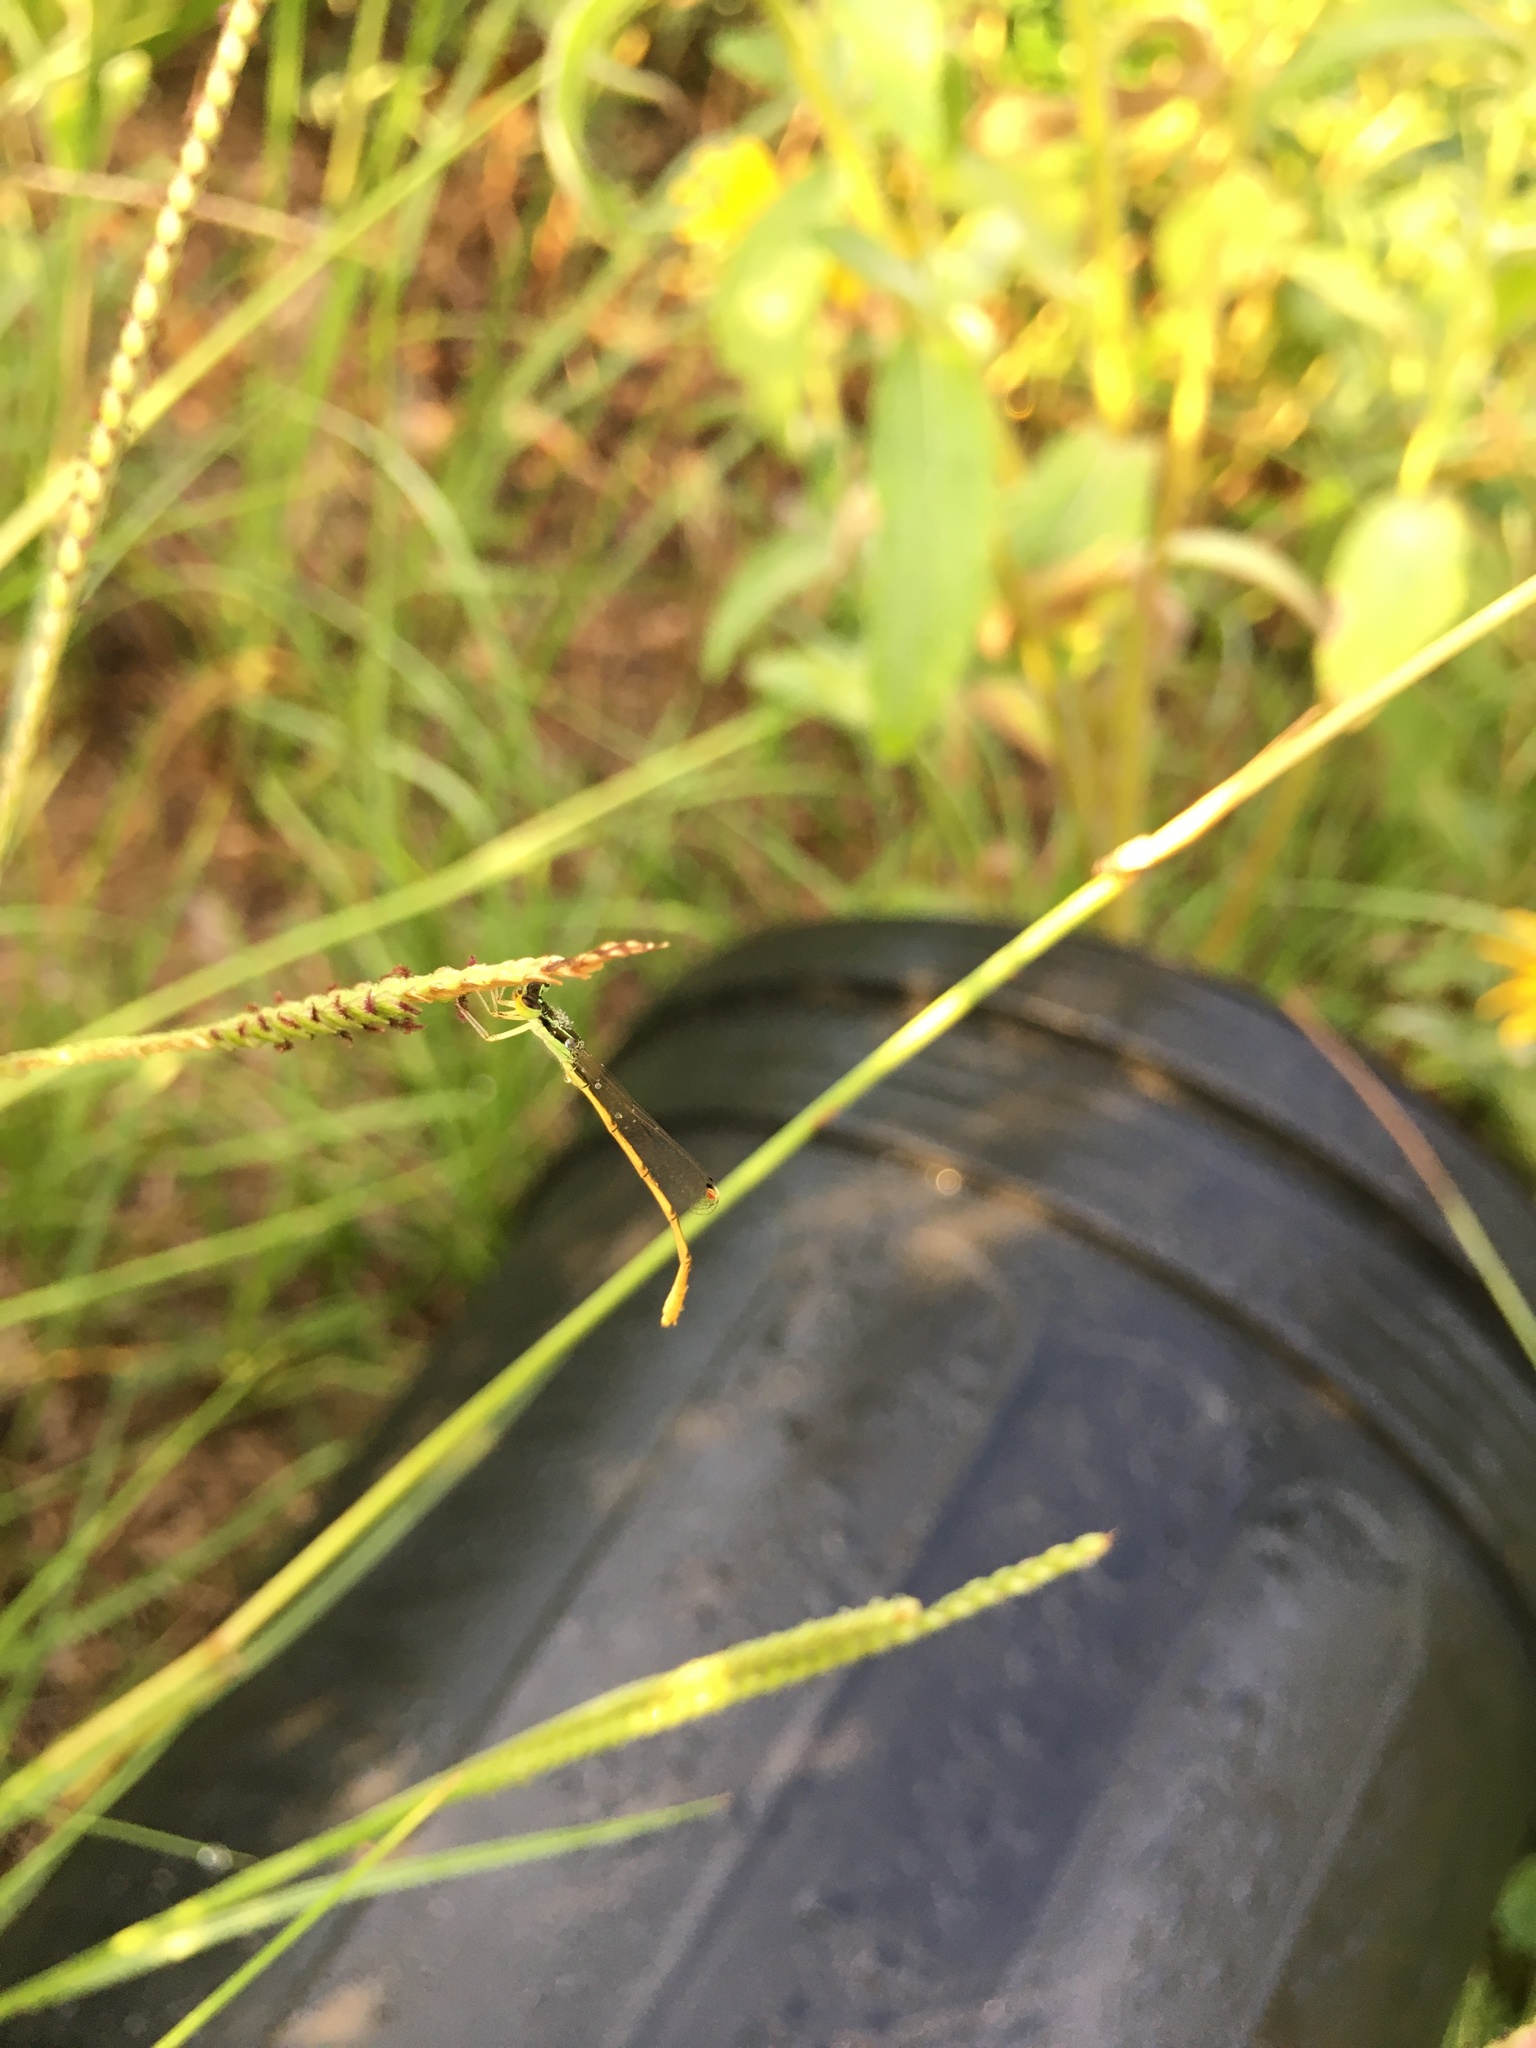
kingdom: Animalia
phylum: Arthropoda
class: Insecta
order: Odonata
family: Coenagrionidae
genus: Ischnura
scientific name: Ischnura hastata
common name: Citrine forktail
